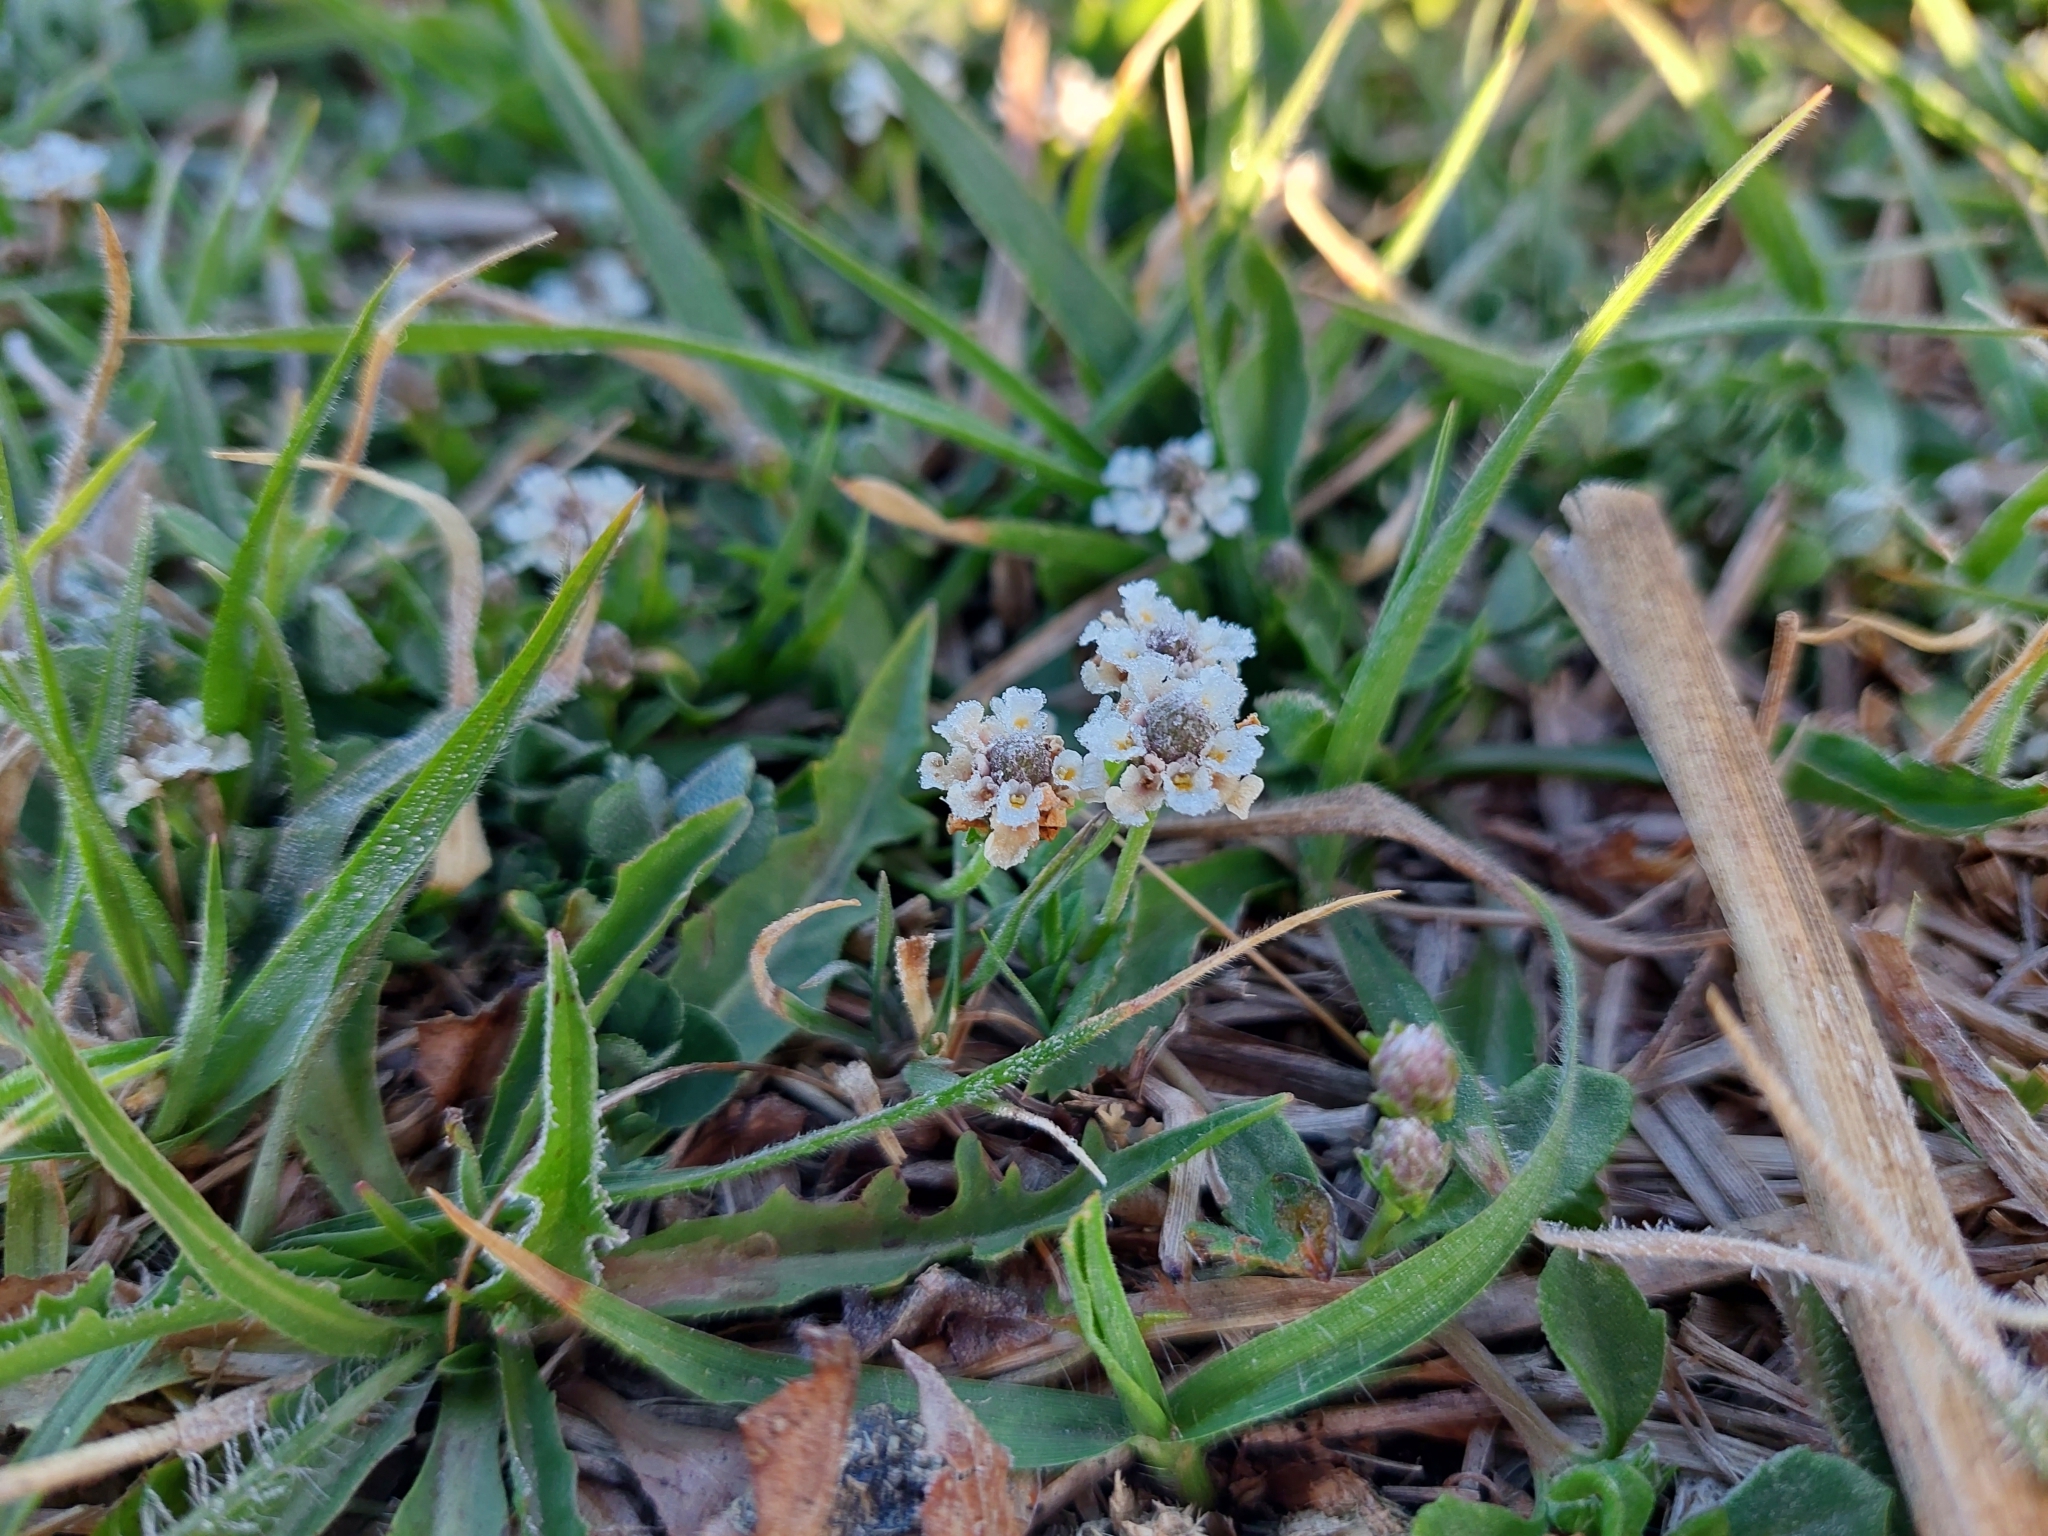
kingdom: Plantae
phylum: Tracheophyta
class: Magnoliopsida
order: Lamiales
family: Verbenaceae
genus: Phyla
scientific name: Phyla nodiflora
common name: Frogfruit
